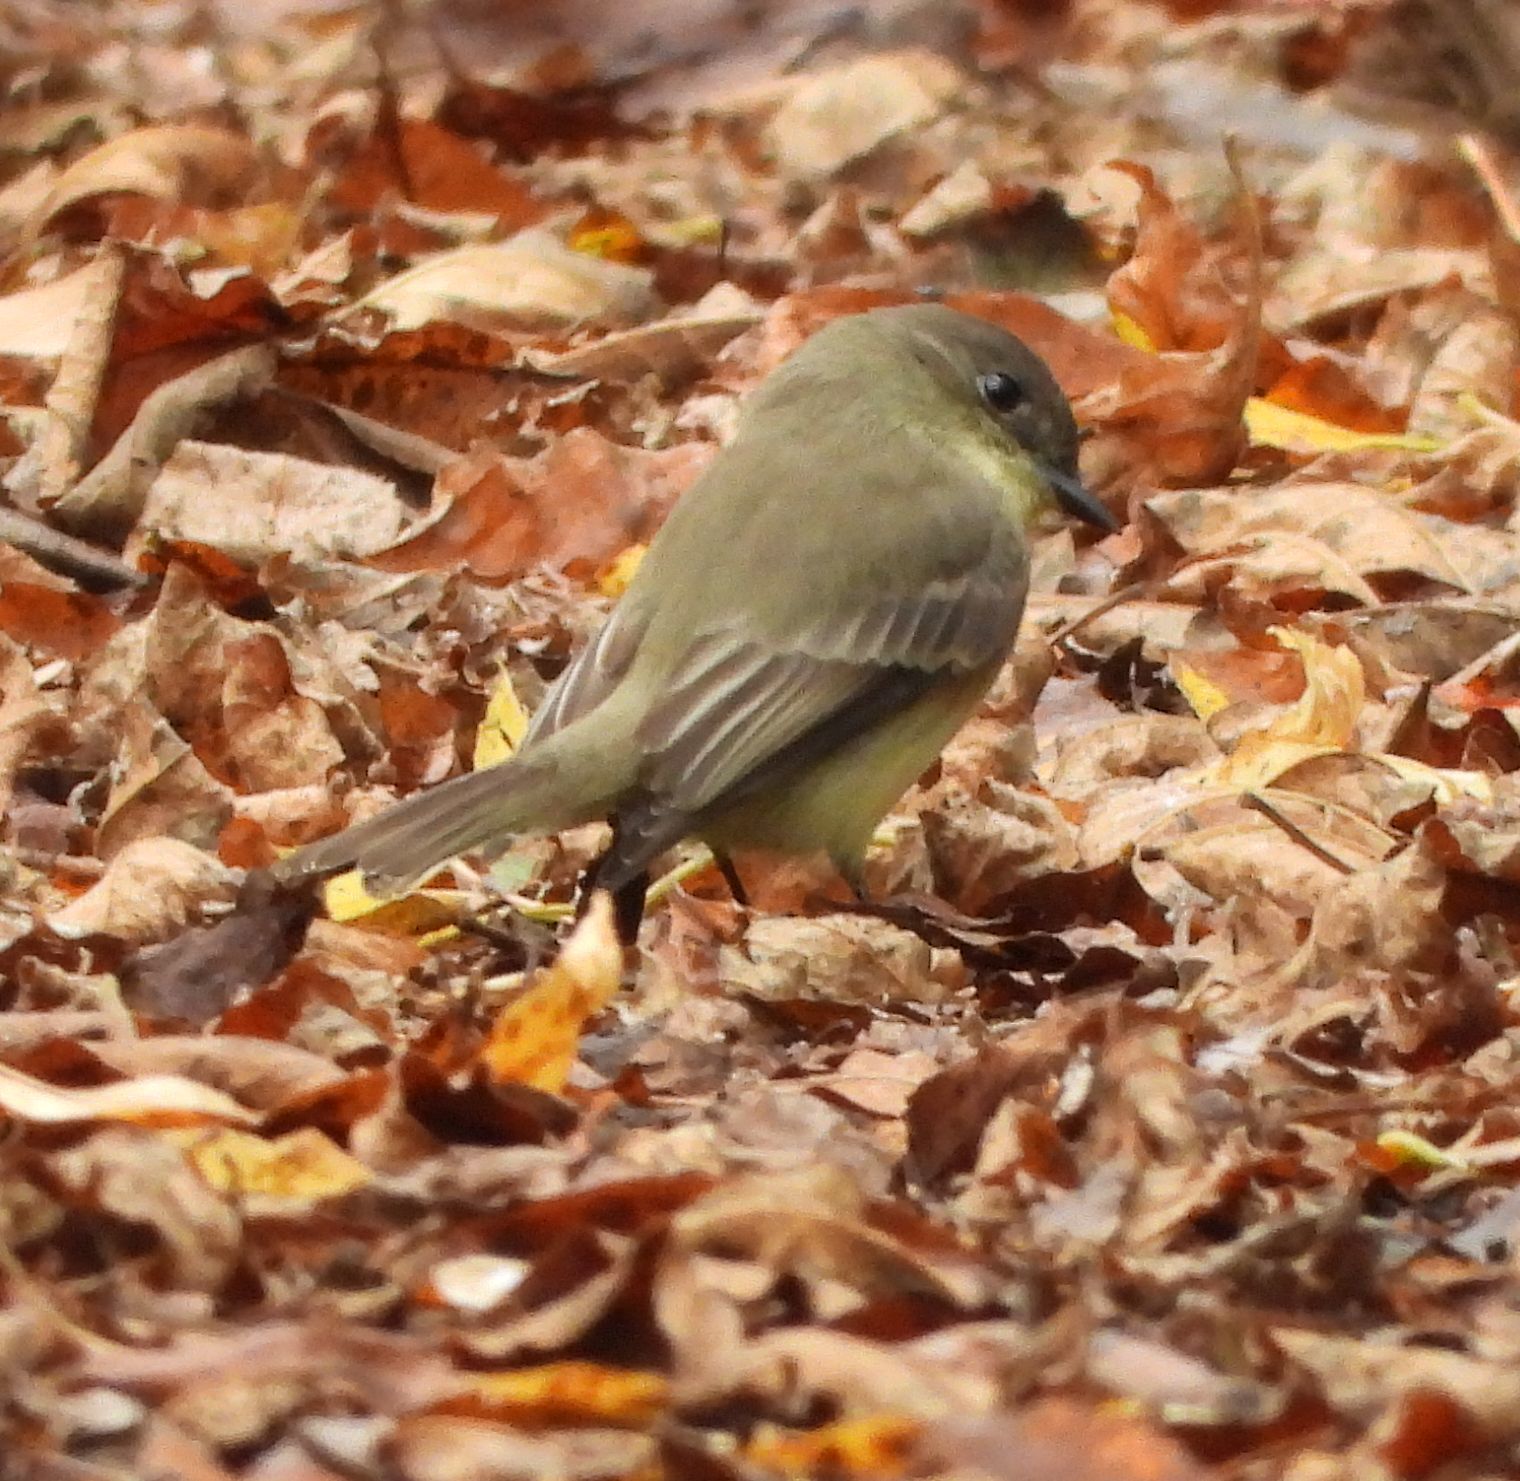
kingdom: Animalia
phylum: Chordata
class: Aves
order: Passeriformes
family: Tyrannidae
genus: Sayornis
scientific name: Sayornis phoebe
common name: Eastern phoebe
